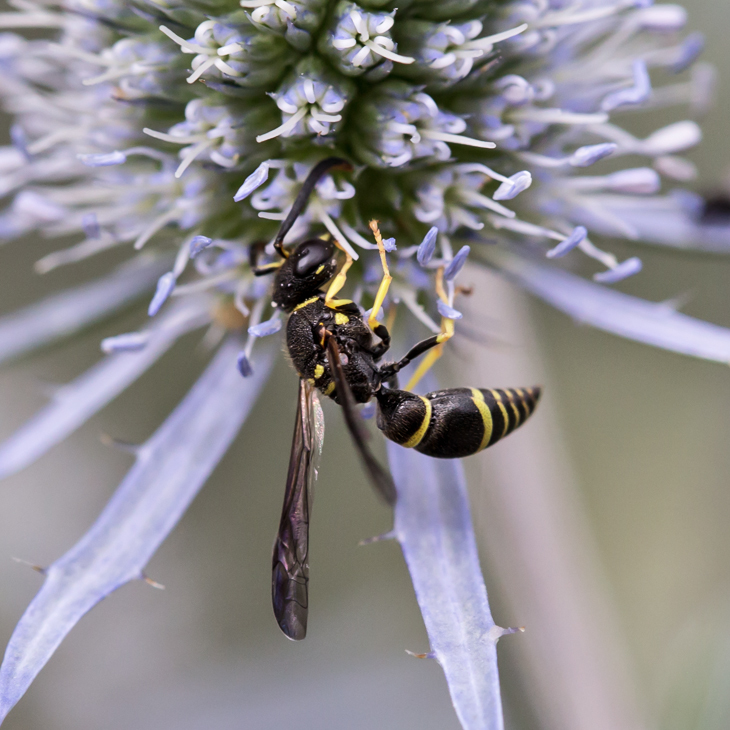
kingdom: Animalia
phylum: Arthropoda
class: Insecta
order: Hymenoptera
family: Vespidae
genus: Ancistrocerus
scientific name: Ancistrocerus adiabatus
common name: Bramble mason wasp
